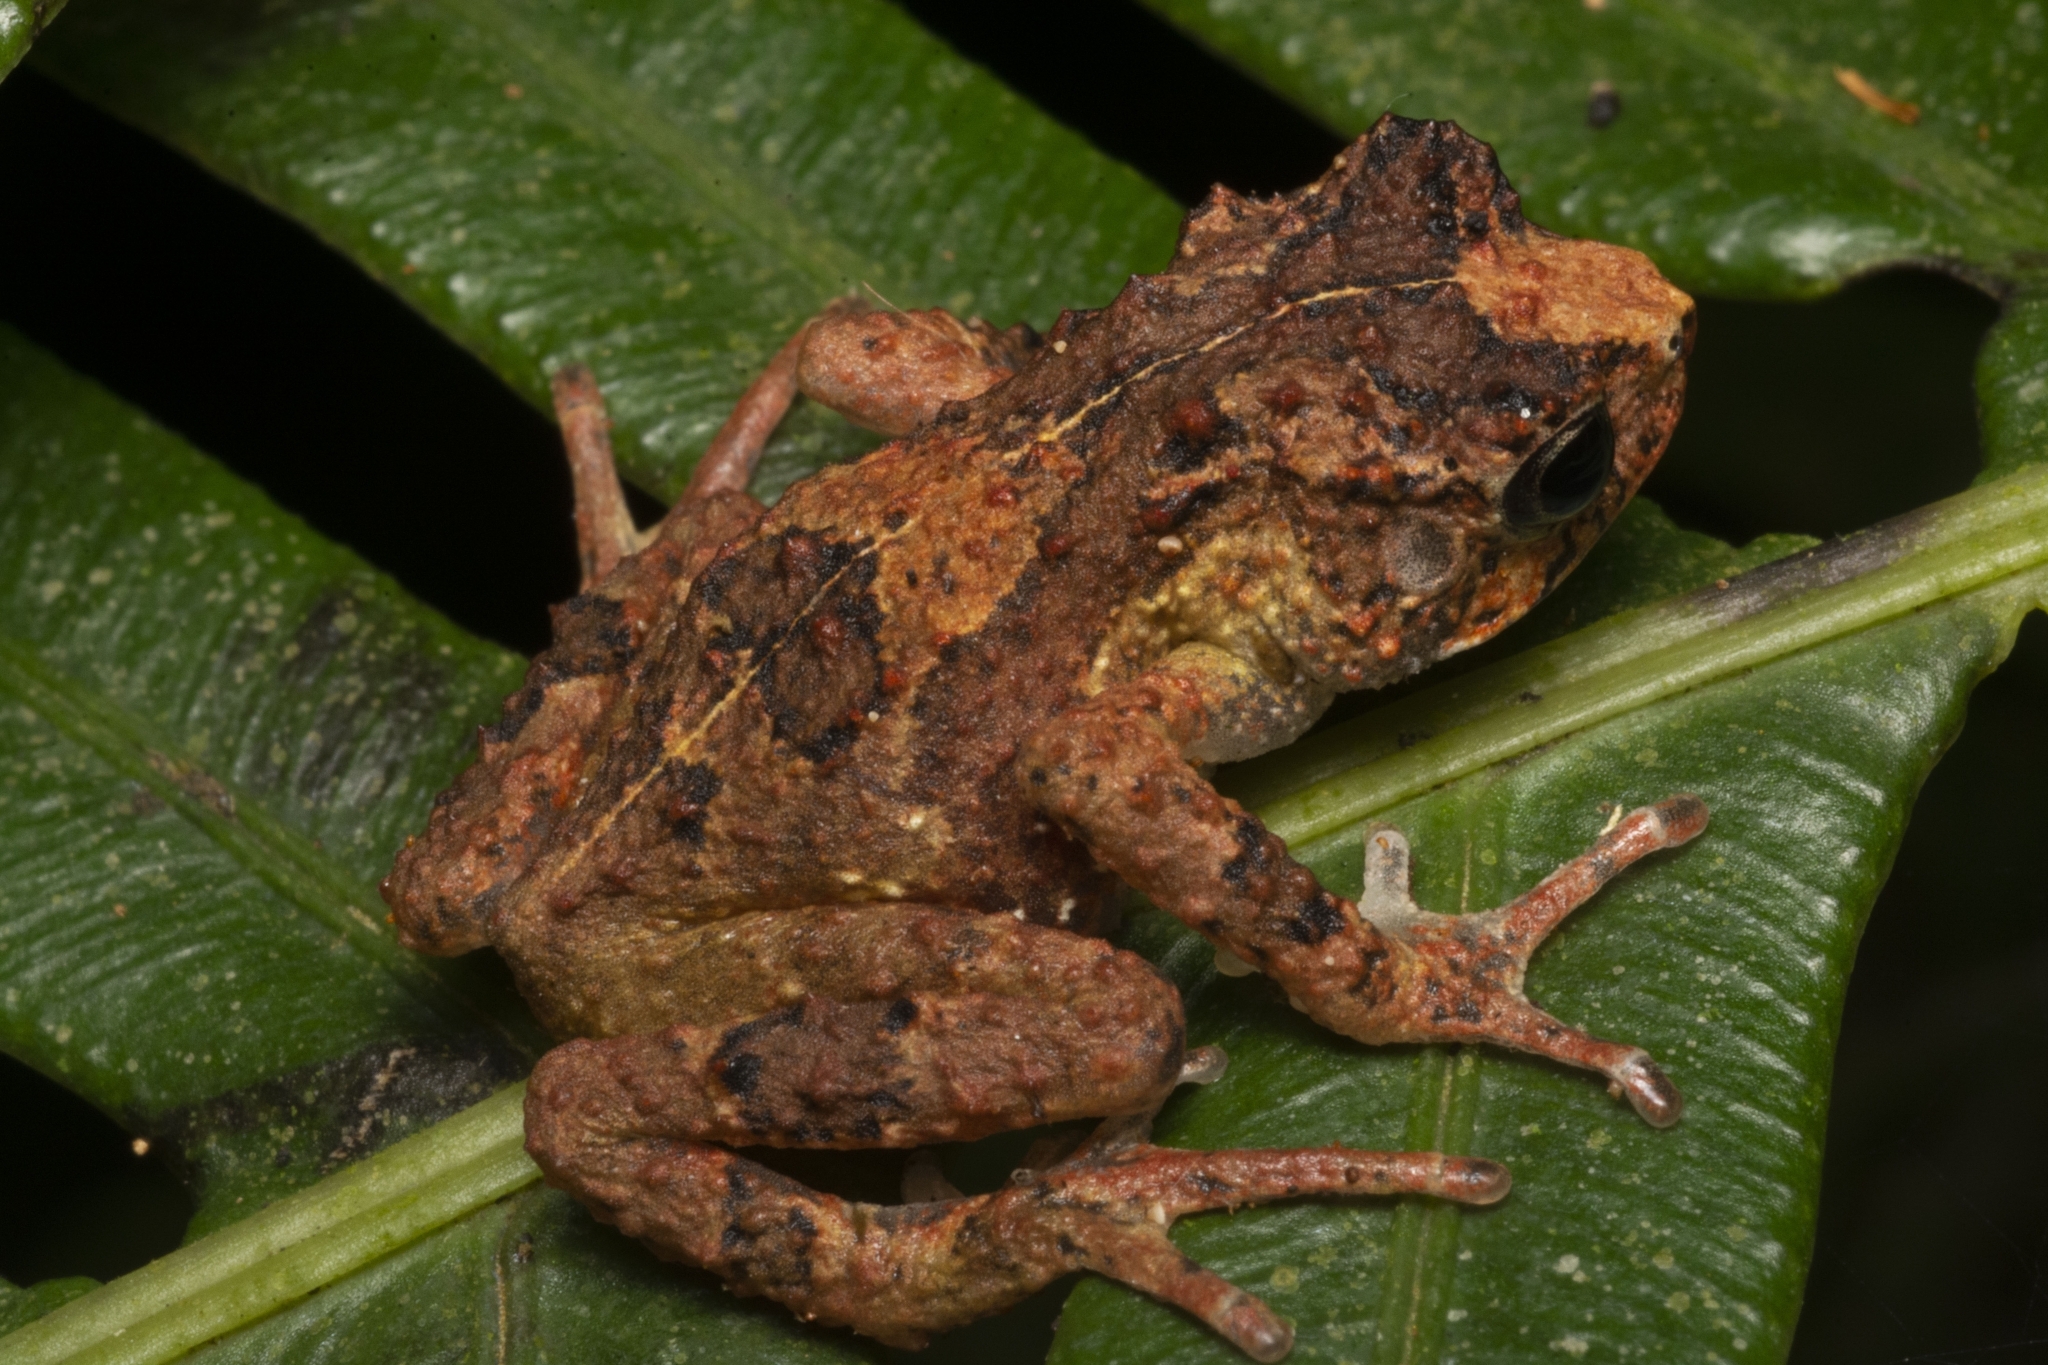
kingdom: Animalia
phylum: Chordata
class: Amphibia
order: Anura
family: Bufonidae
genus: Nectophrynoides
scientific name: Nectophrynoides paulae
